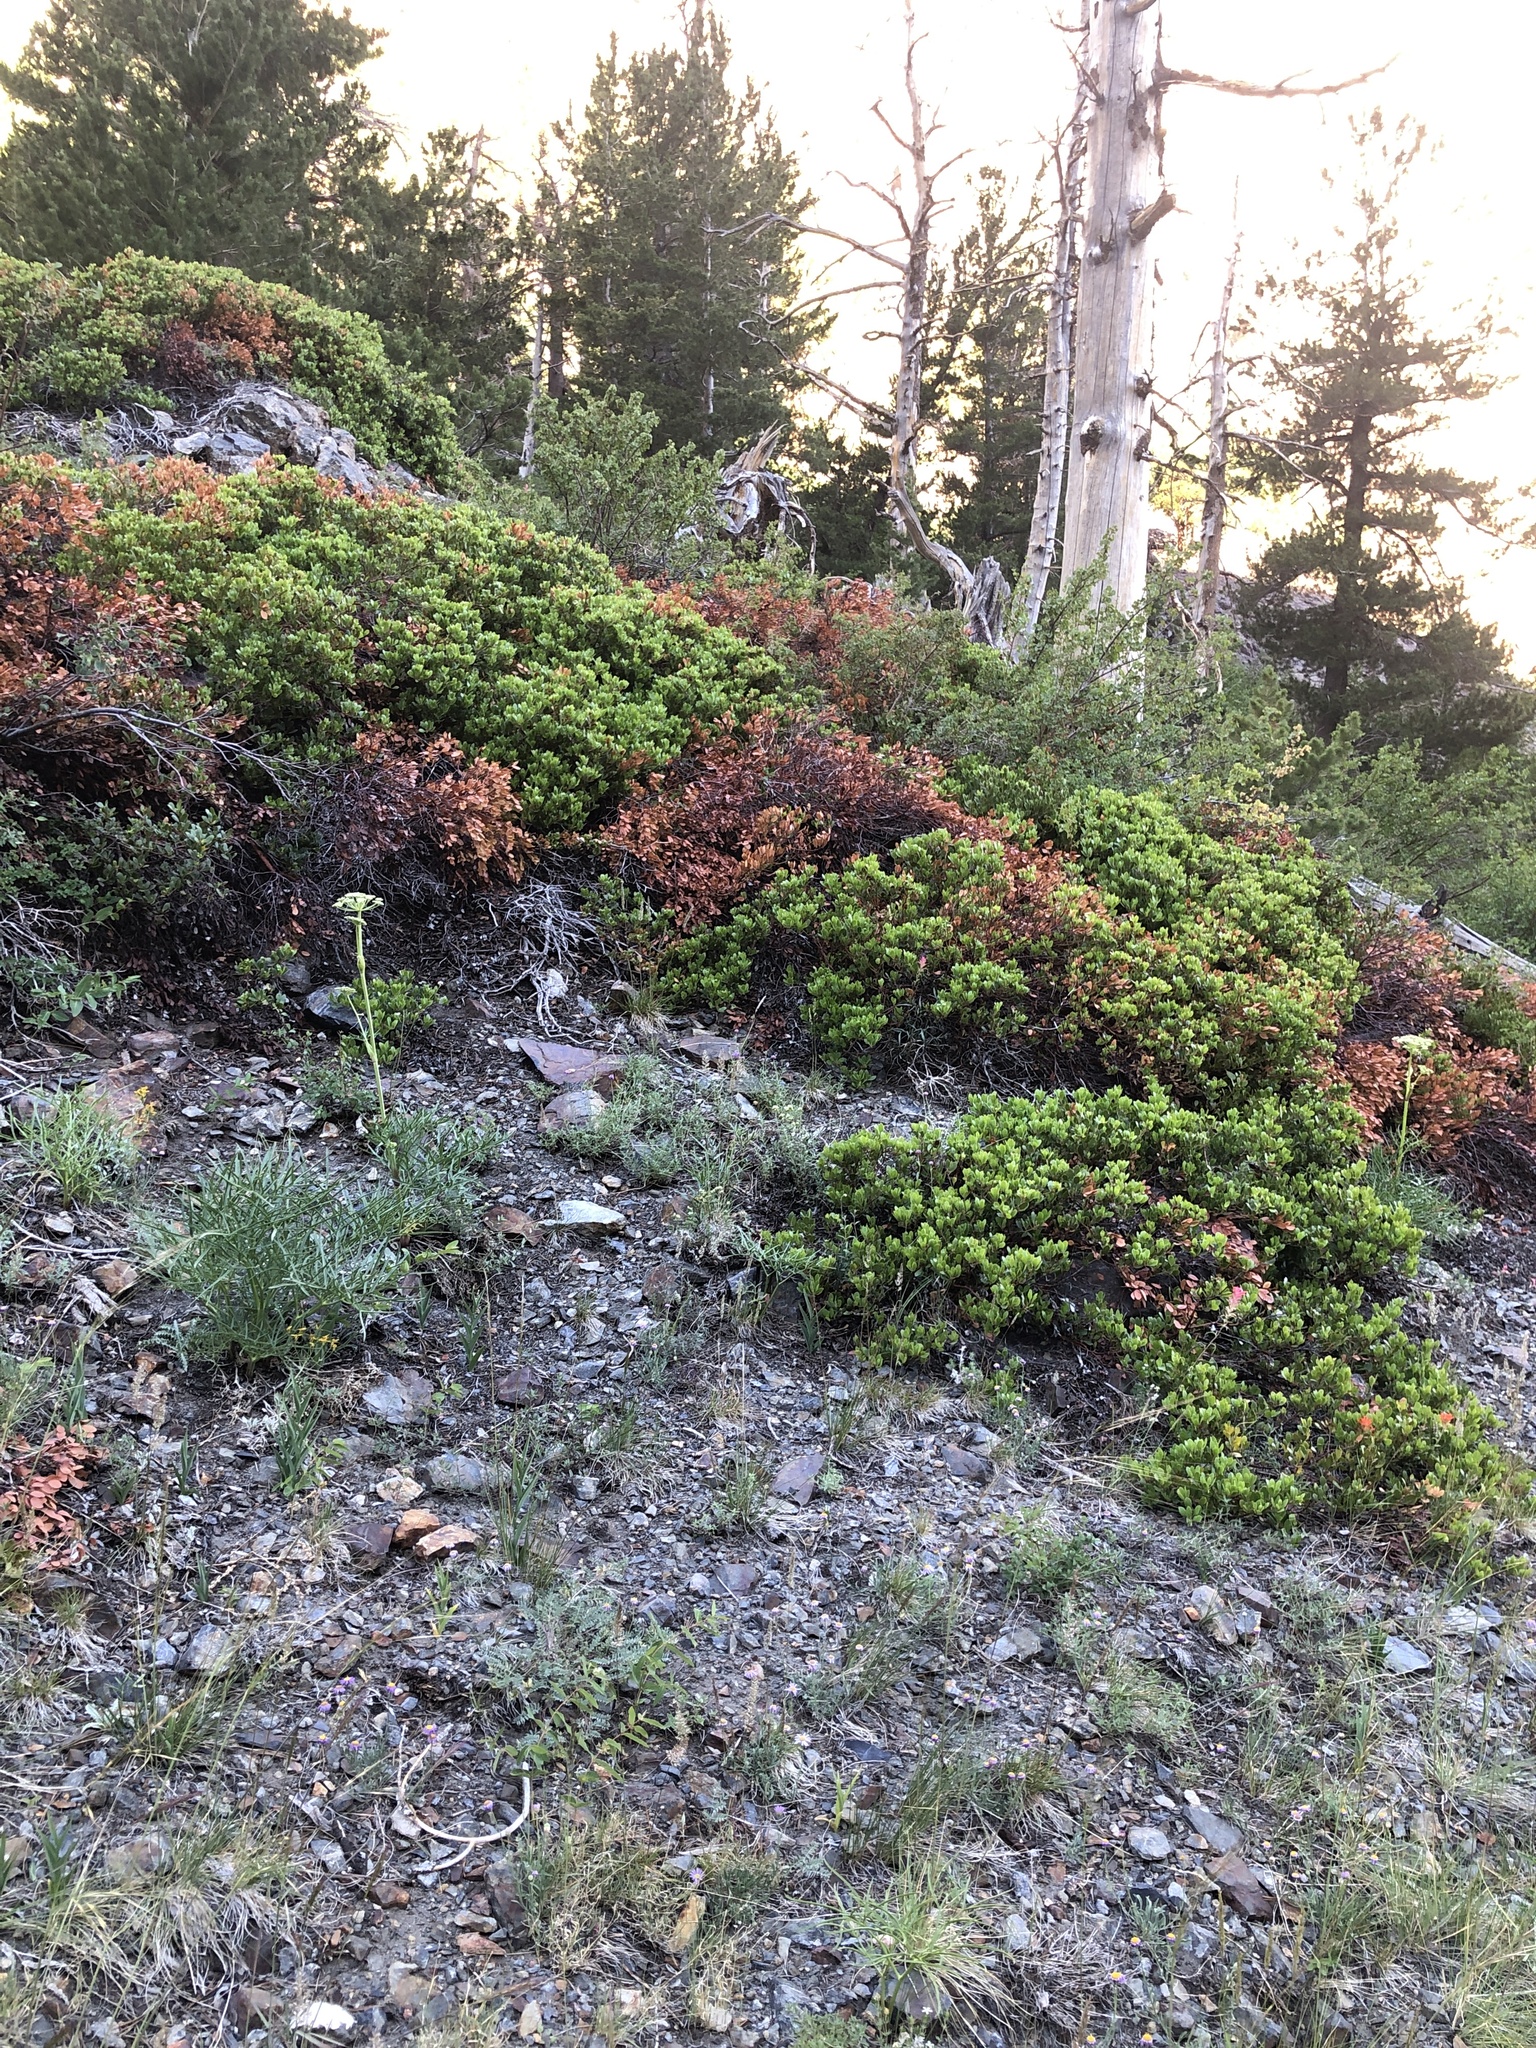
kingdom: Plantae
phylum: Tracheophyta
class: Magnoliopsida
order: Ericales
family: Ericaceae
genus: Arctostaphylos
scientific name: Arctostaphylos nevadensis
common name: Pinemat manzanita
